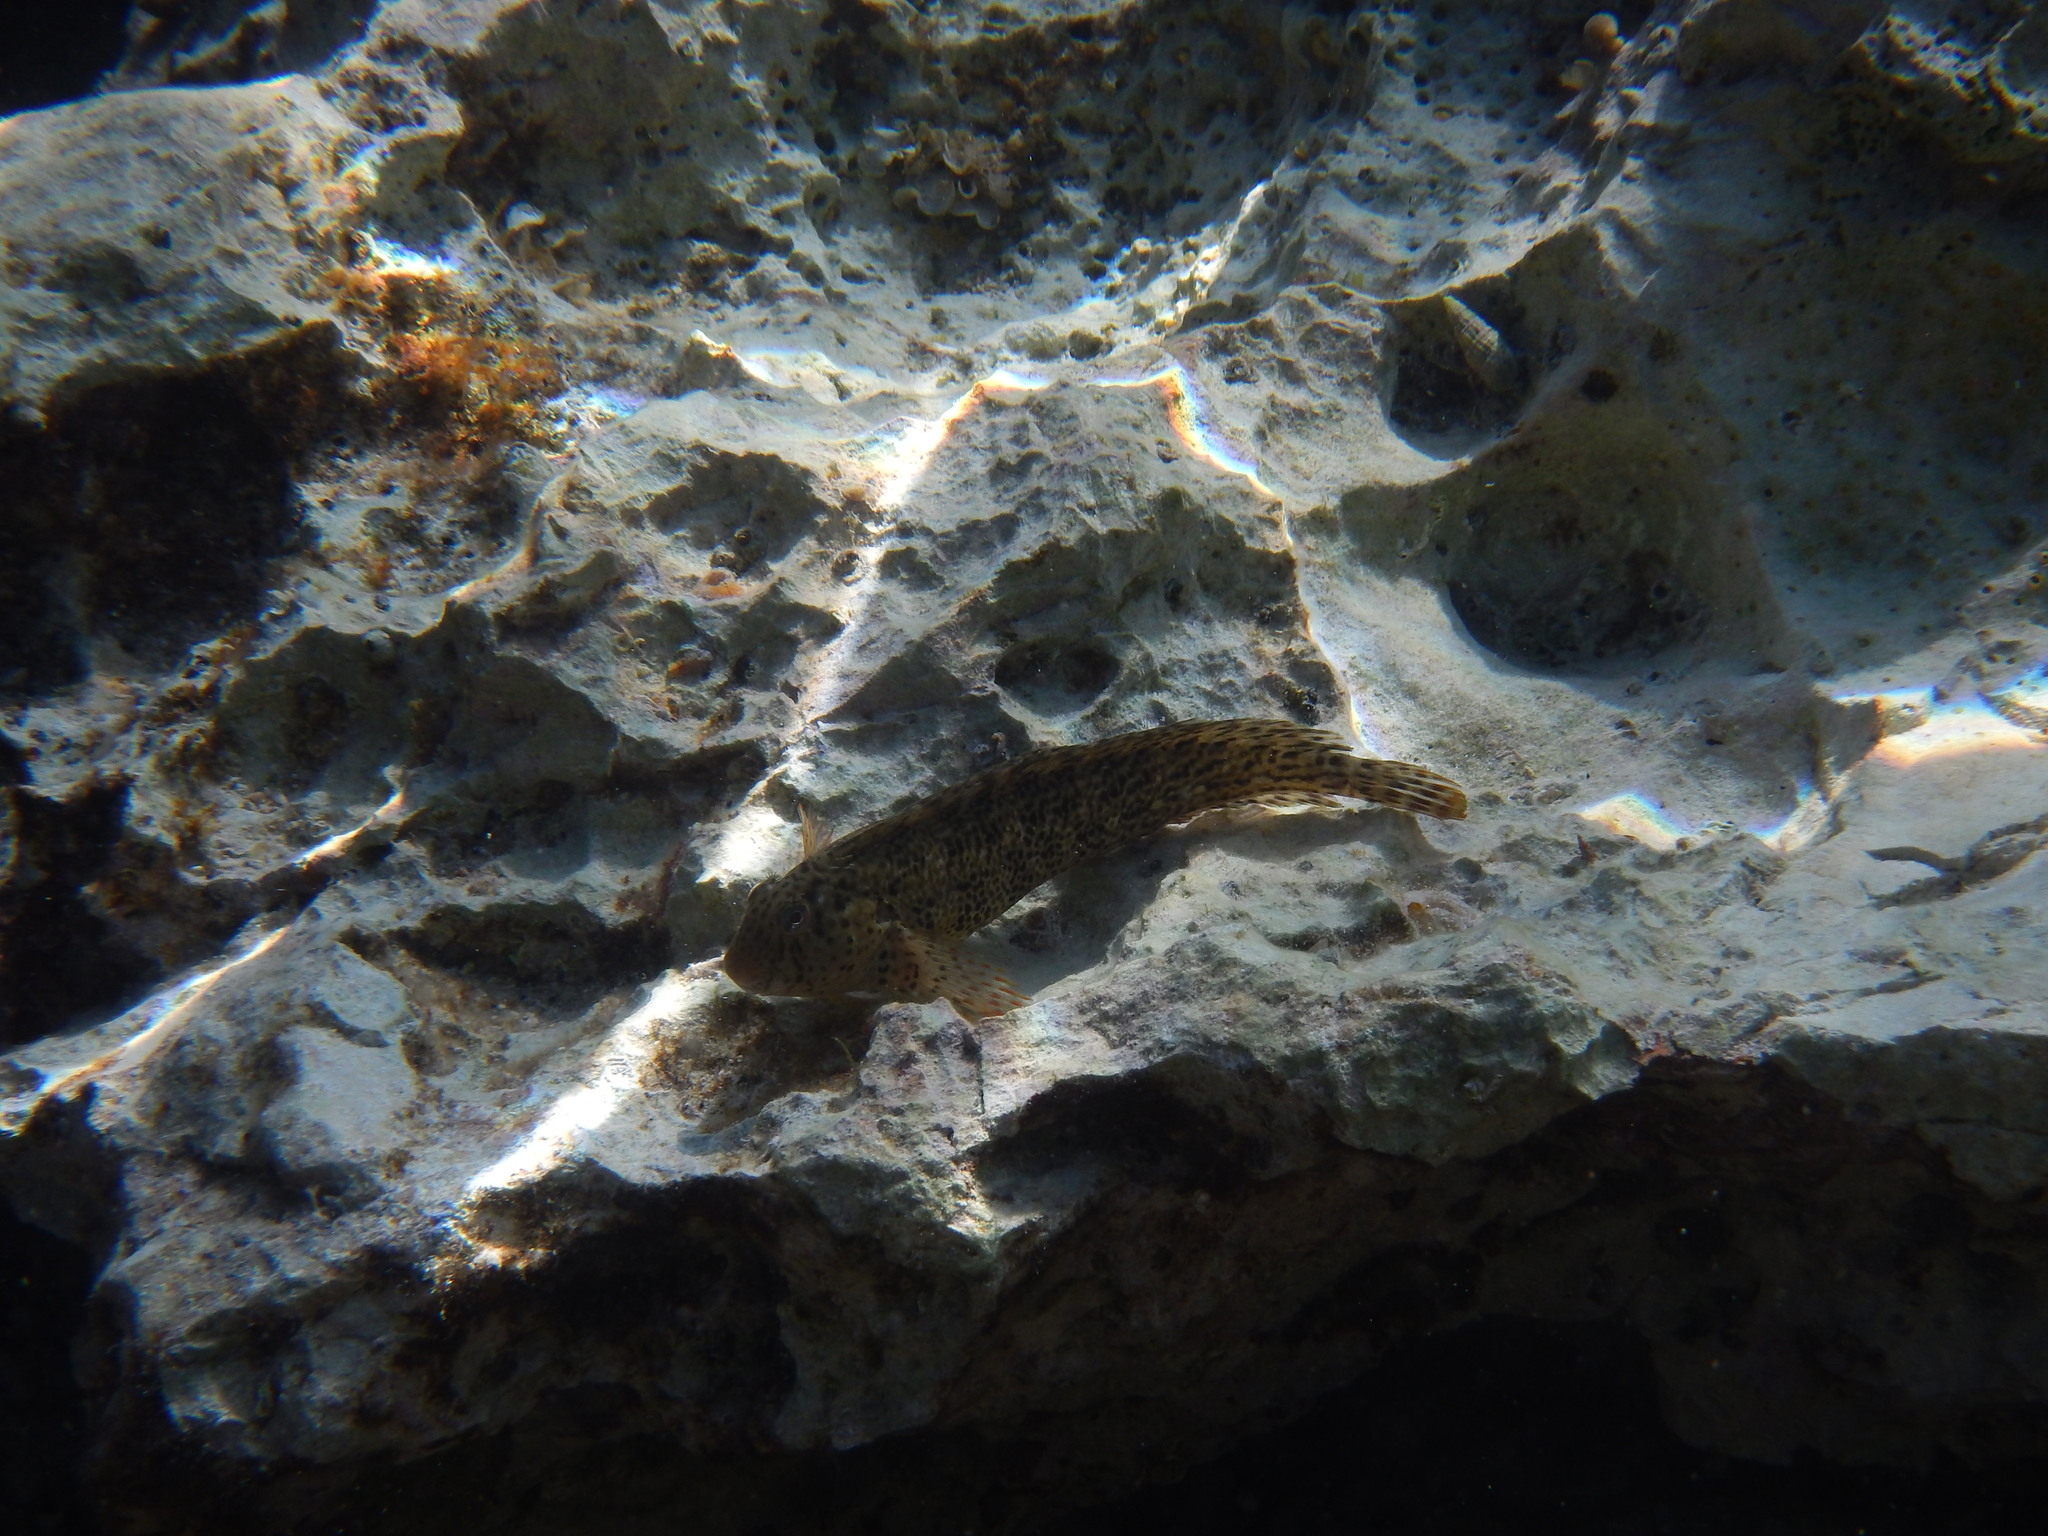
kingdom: Animalia
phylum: Chordata
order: Perciformes
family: Blenniidae
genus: Parablennius
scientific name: Parablennius sanguinolentus
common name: Black sea blenny
